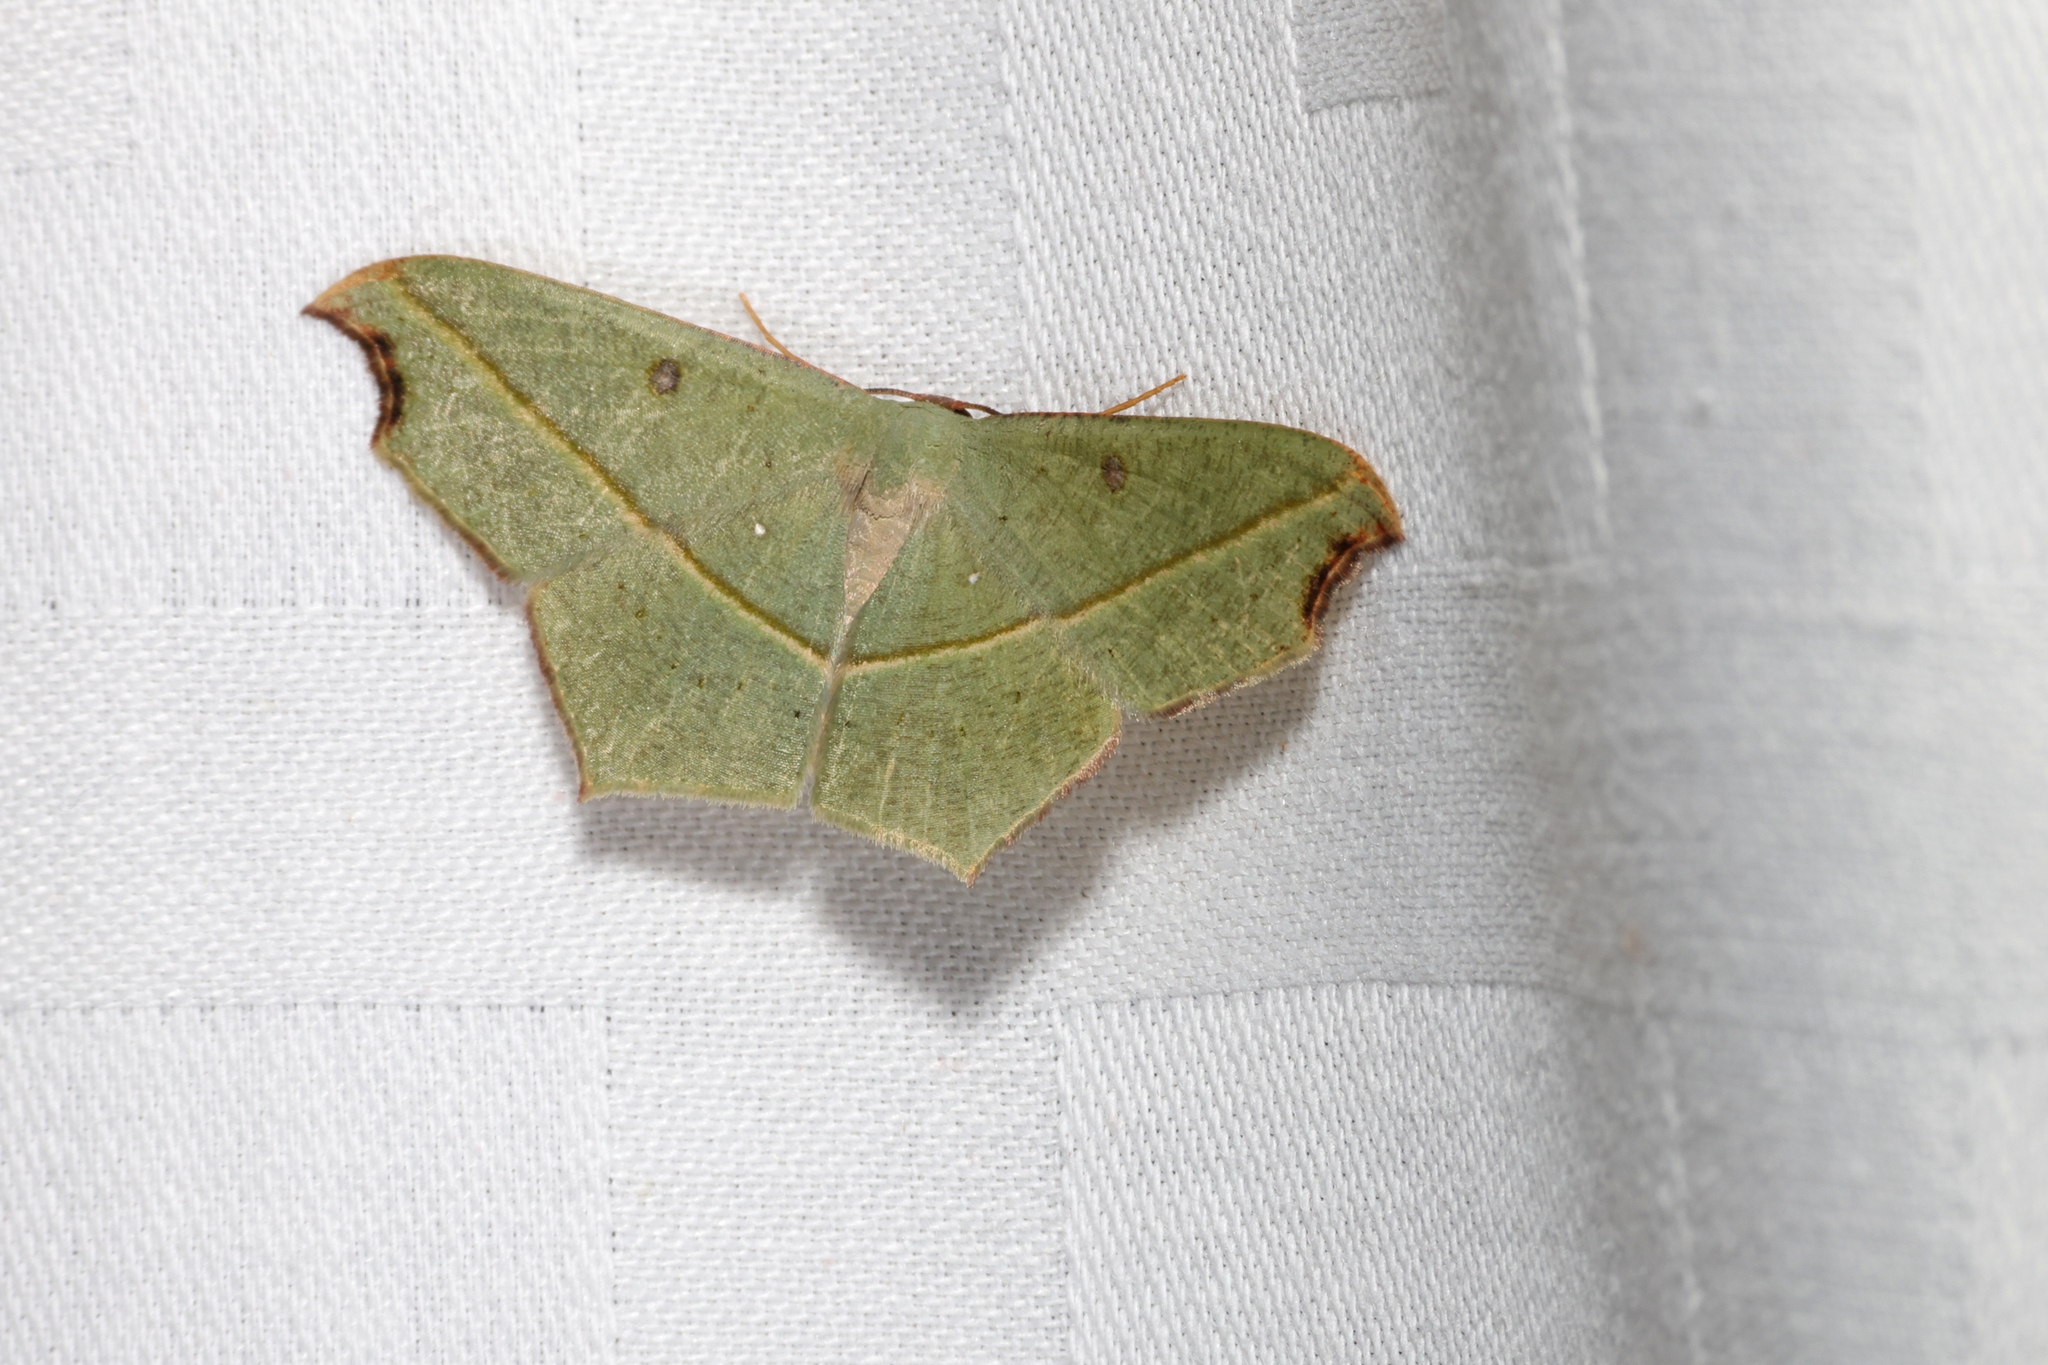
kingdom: Animalia
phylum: Arthropoda
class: Insecta
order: Lepidoptera
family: Geometridae
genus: Traminda
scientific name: Traminda aventiaria
